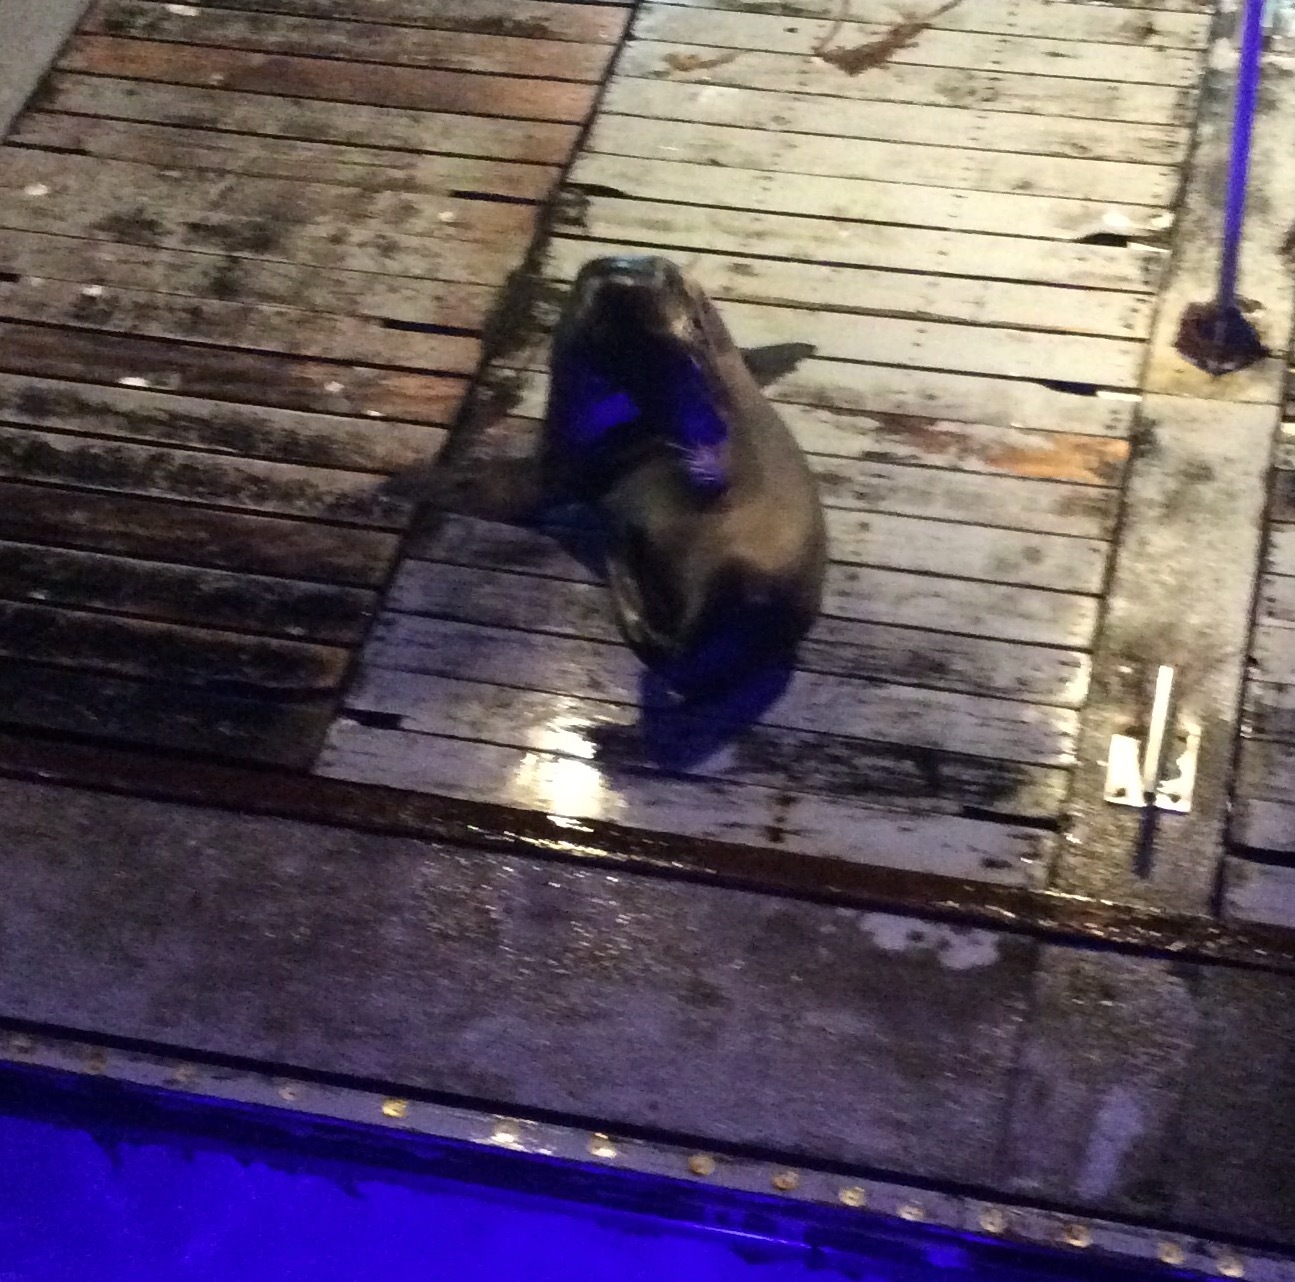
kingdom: Animalia
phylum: Chordata
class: Mammalia
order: Carnivora
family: Otariidae
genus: Zalophus
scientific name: Zalophus californianus
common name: California sea lion
